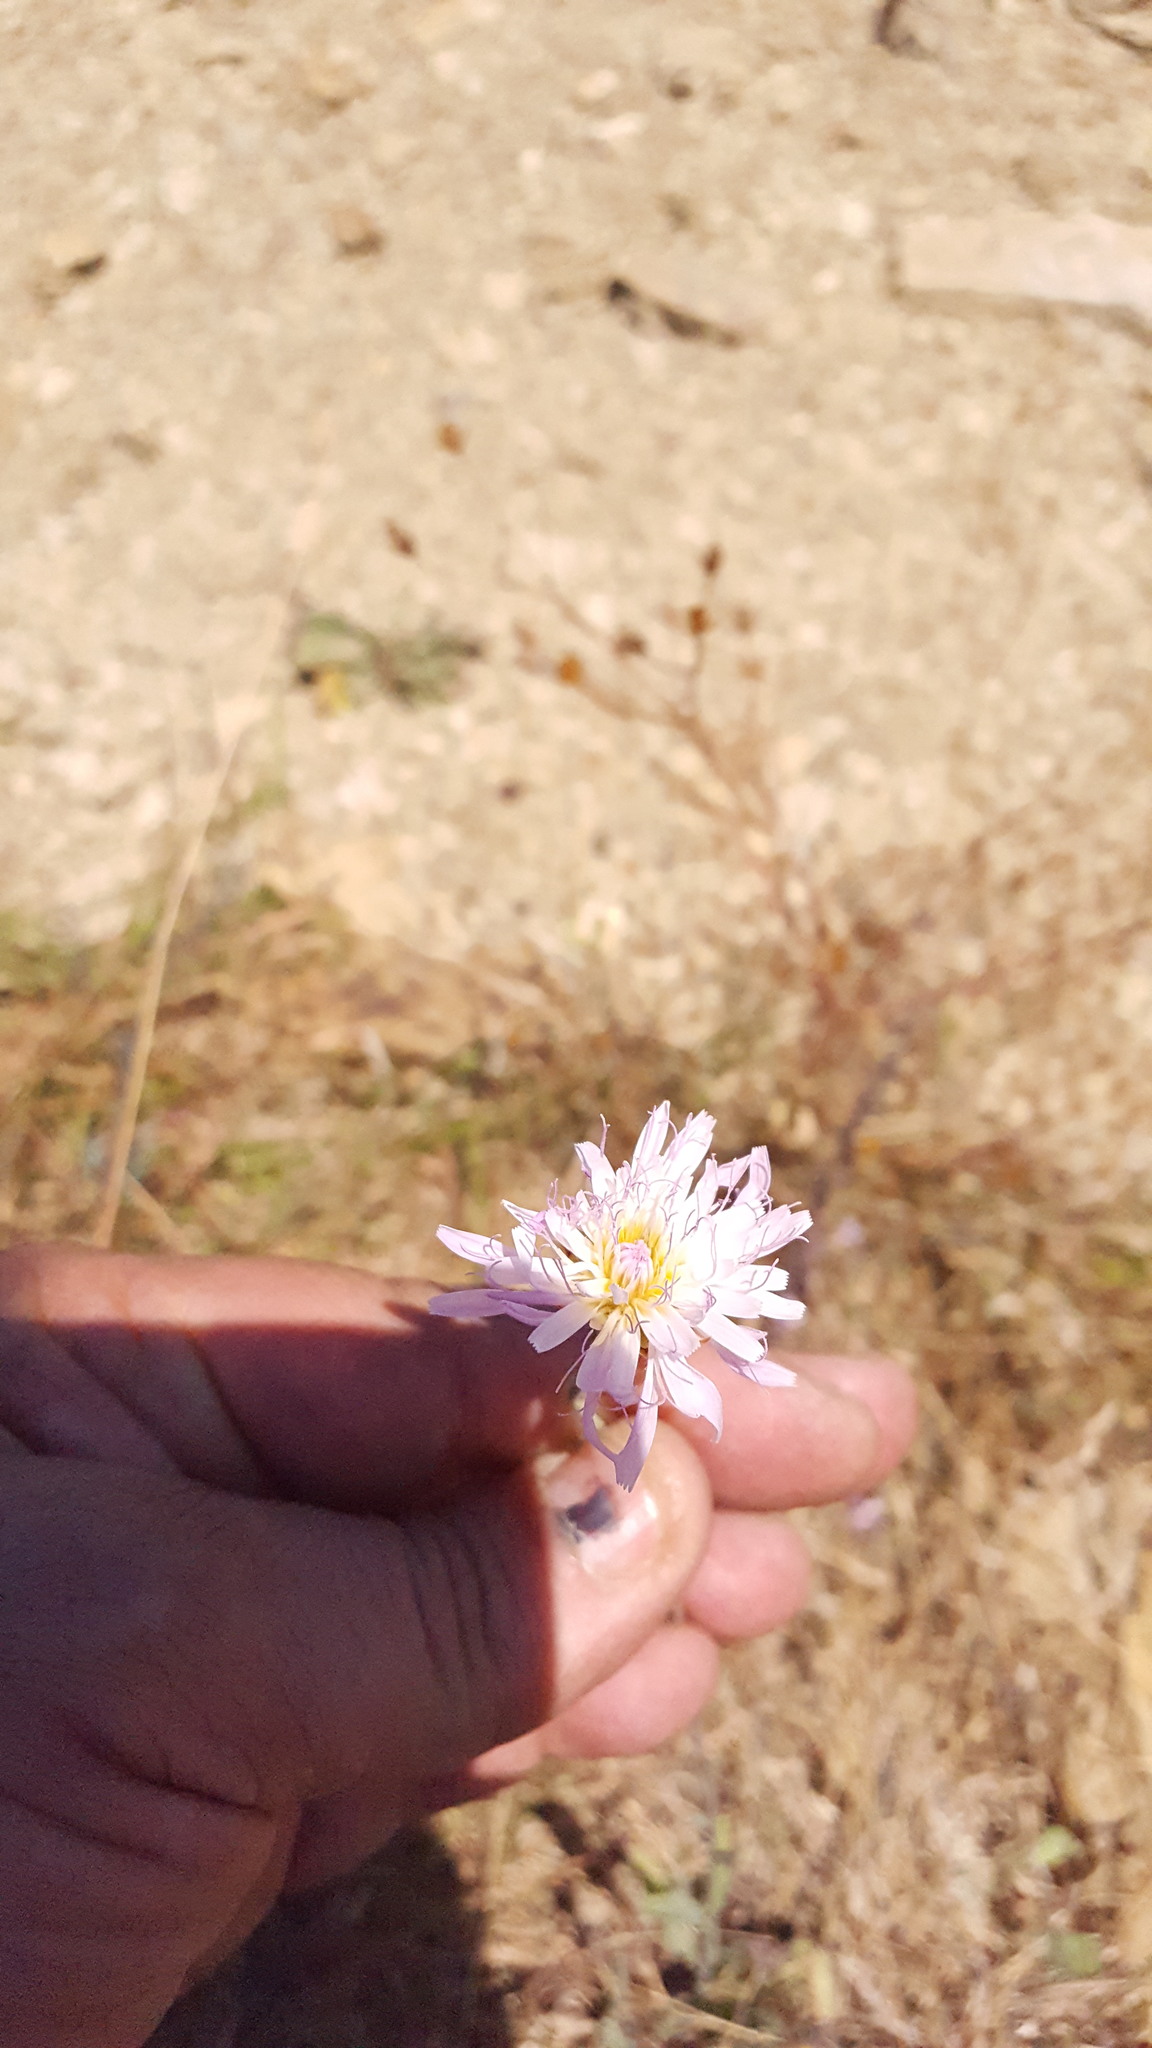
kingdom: Plantae
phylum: Tracheophyta
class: Magnoliopsida
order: Asterales
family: Asteraceae
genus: Pinaropappus
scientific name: Pinaropappus roseus
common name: Rock-lettuce
